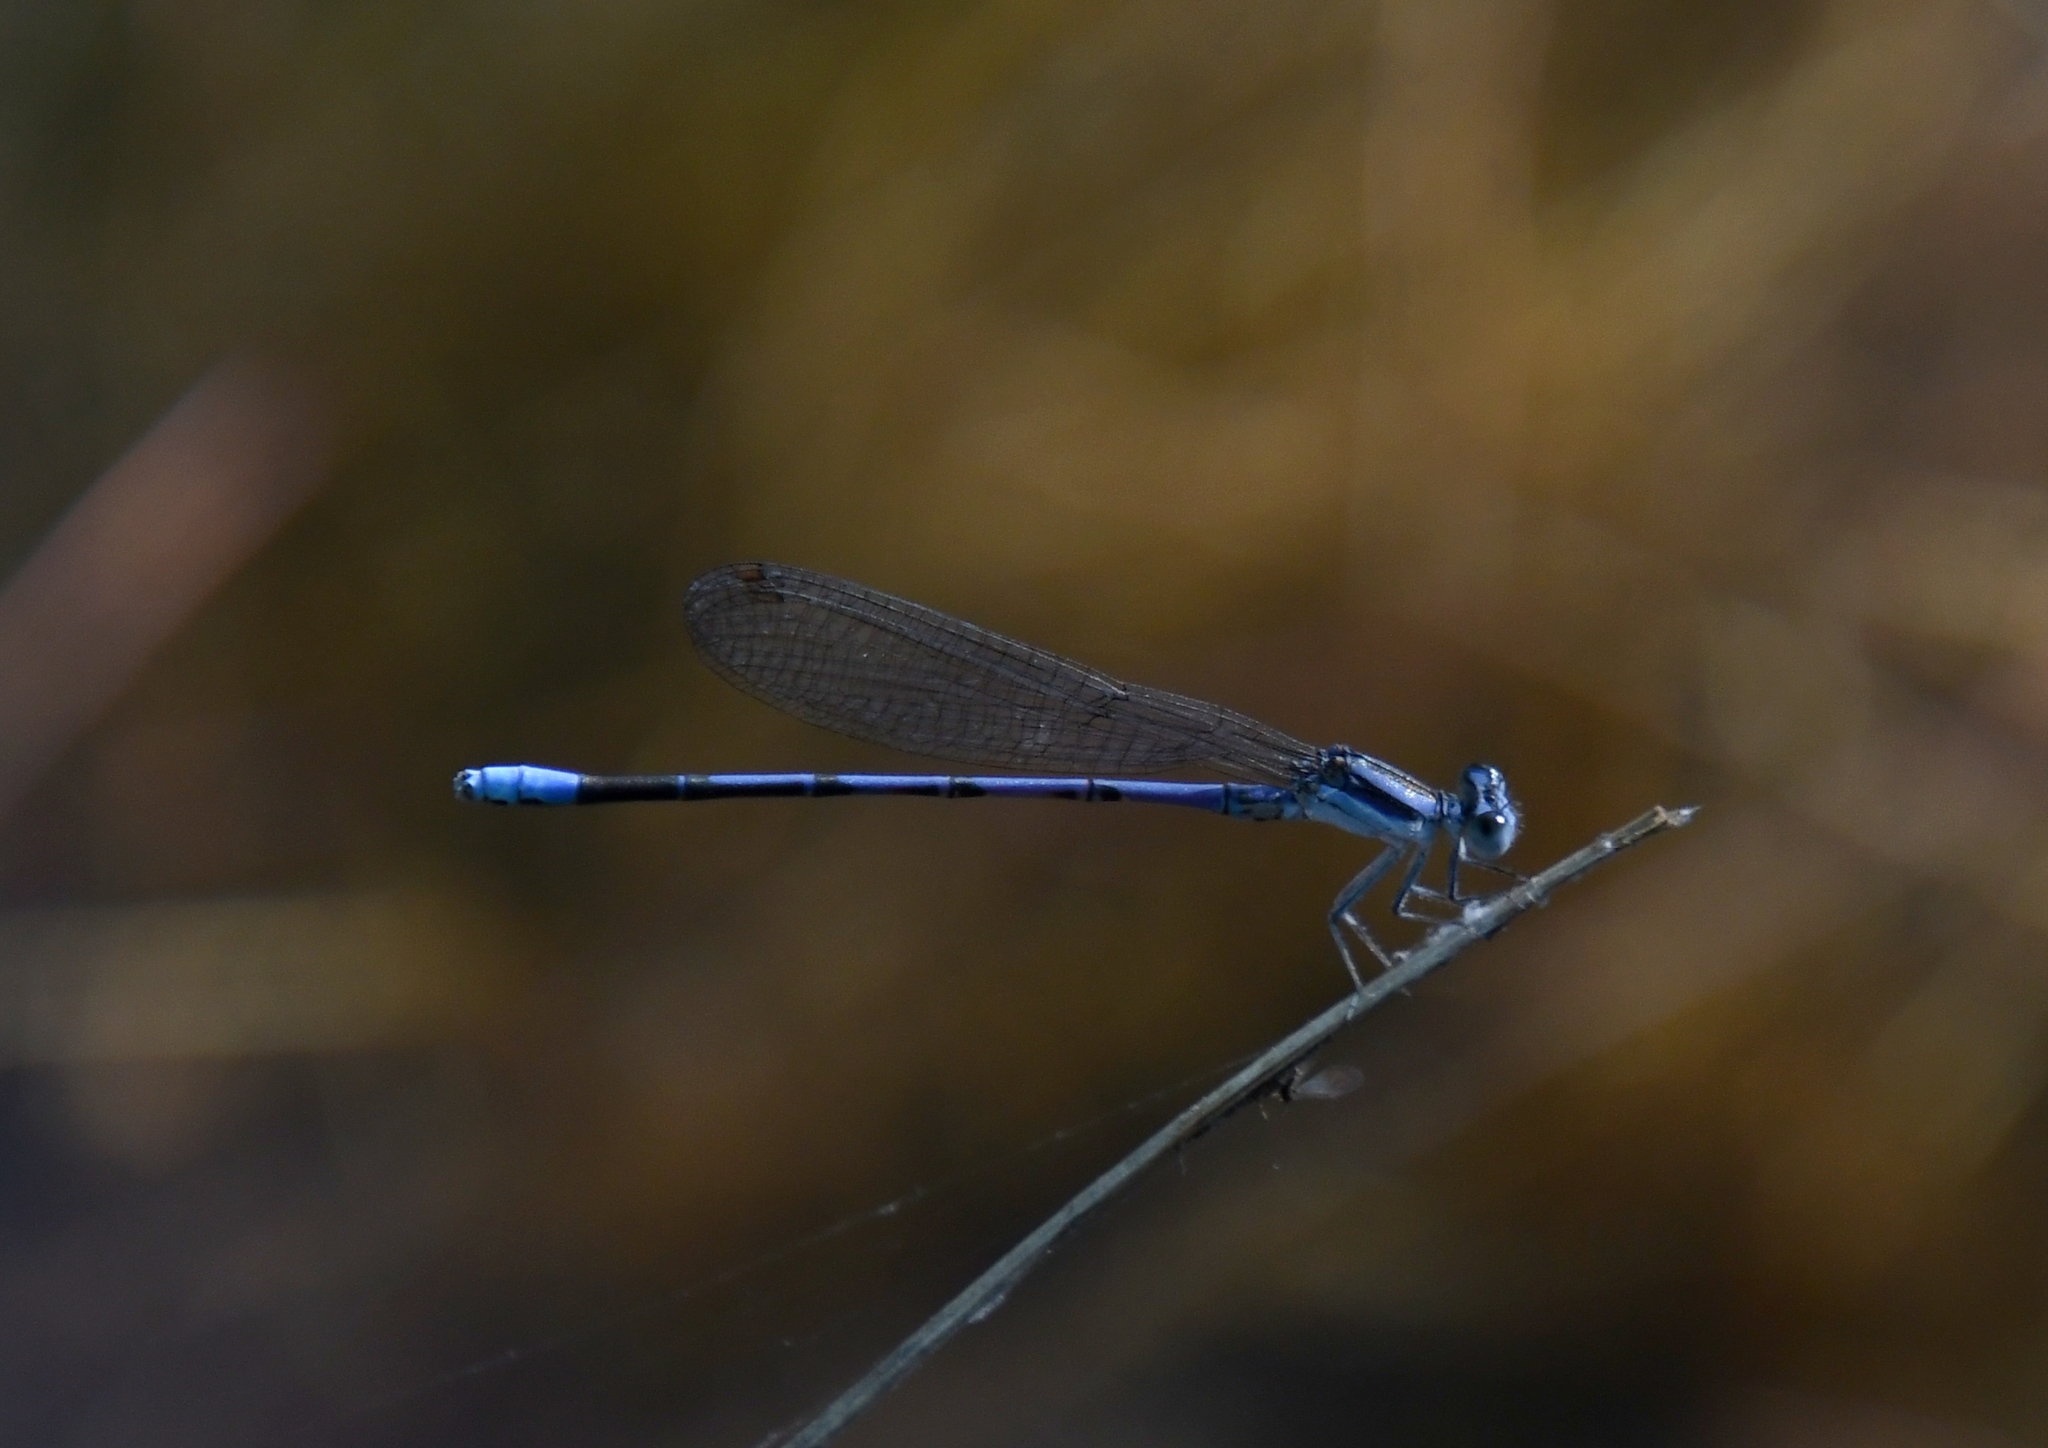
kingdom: Animalia
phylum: Arthropoda
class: Insecta
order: Odonata
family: Coenagrionidae
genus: Argia
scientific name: Argia hinei
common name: Lavender dancer
